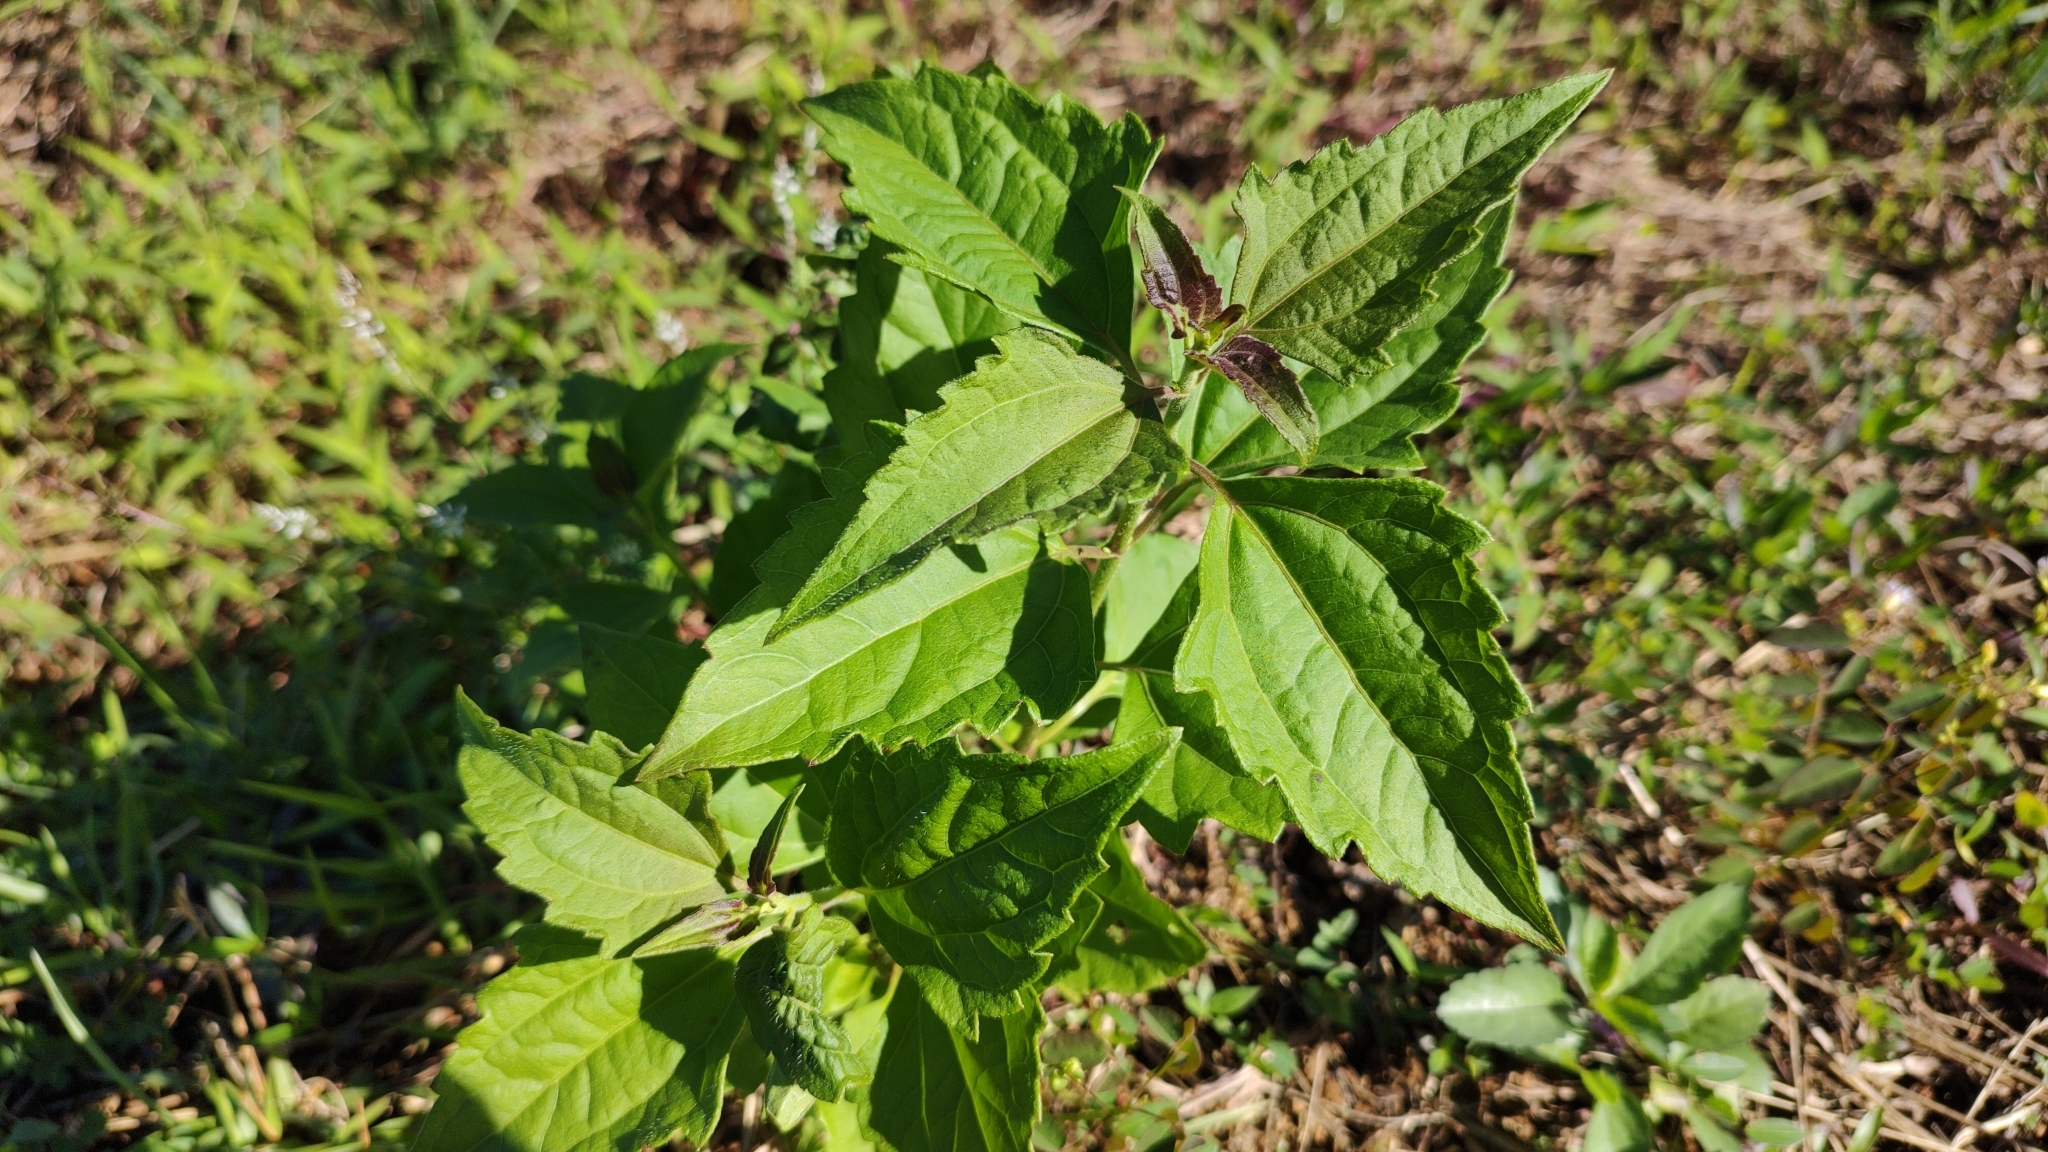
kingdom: Plantae
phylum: Tracheophyta
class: Magnoliopsida
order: Asterales
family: Asteraceae
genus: Chromolaena
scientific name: Chromolaena odorata
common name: Siamweed
